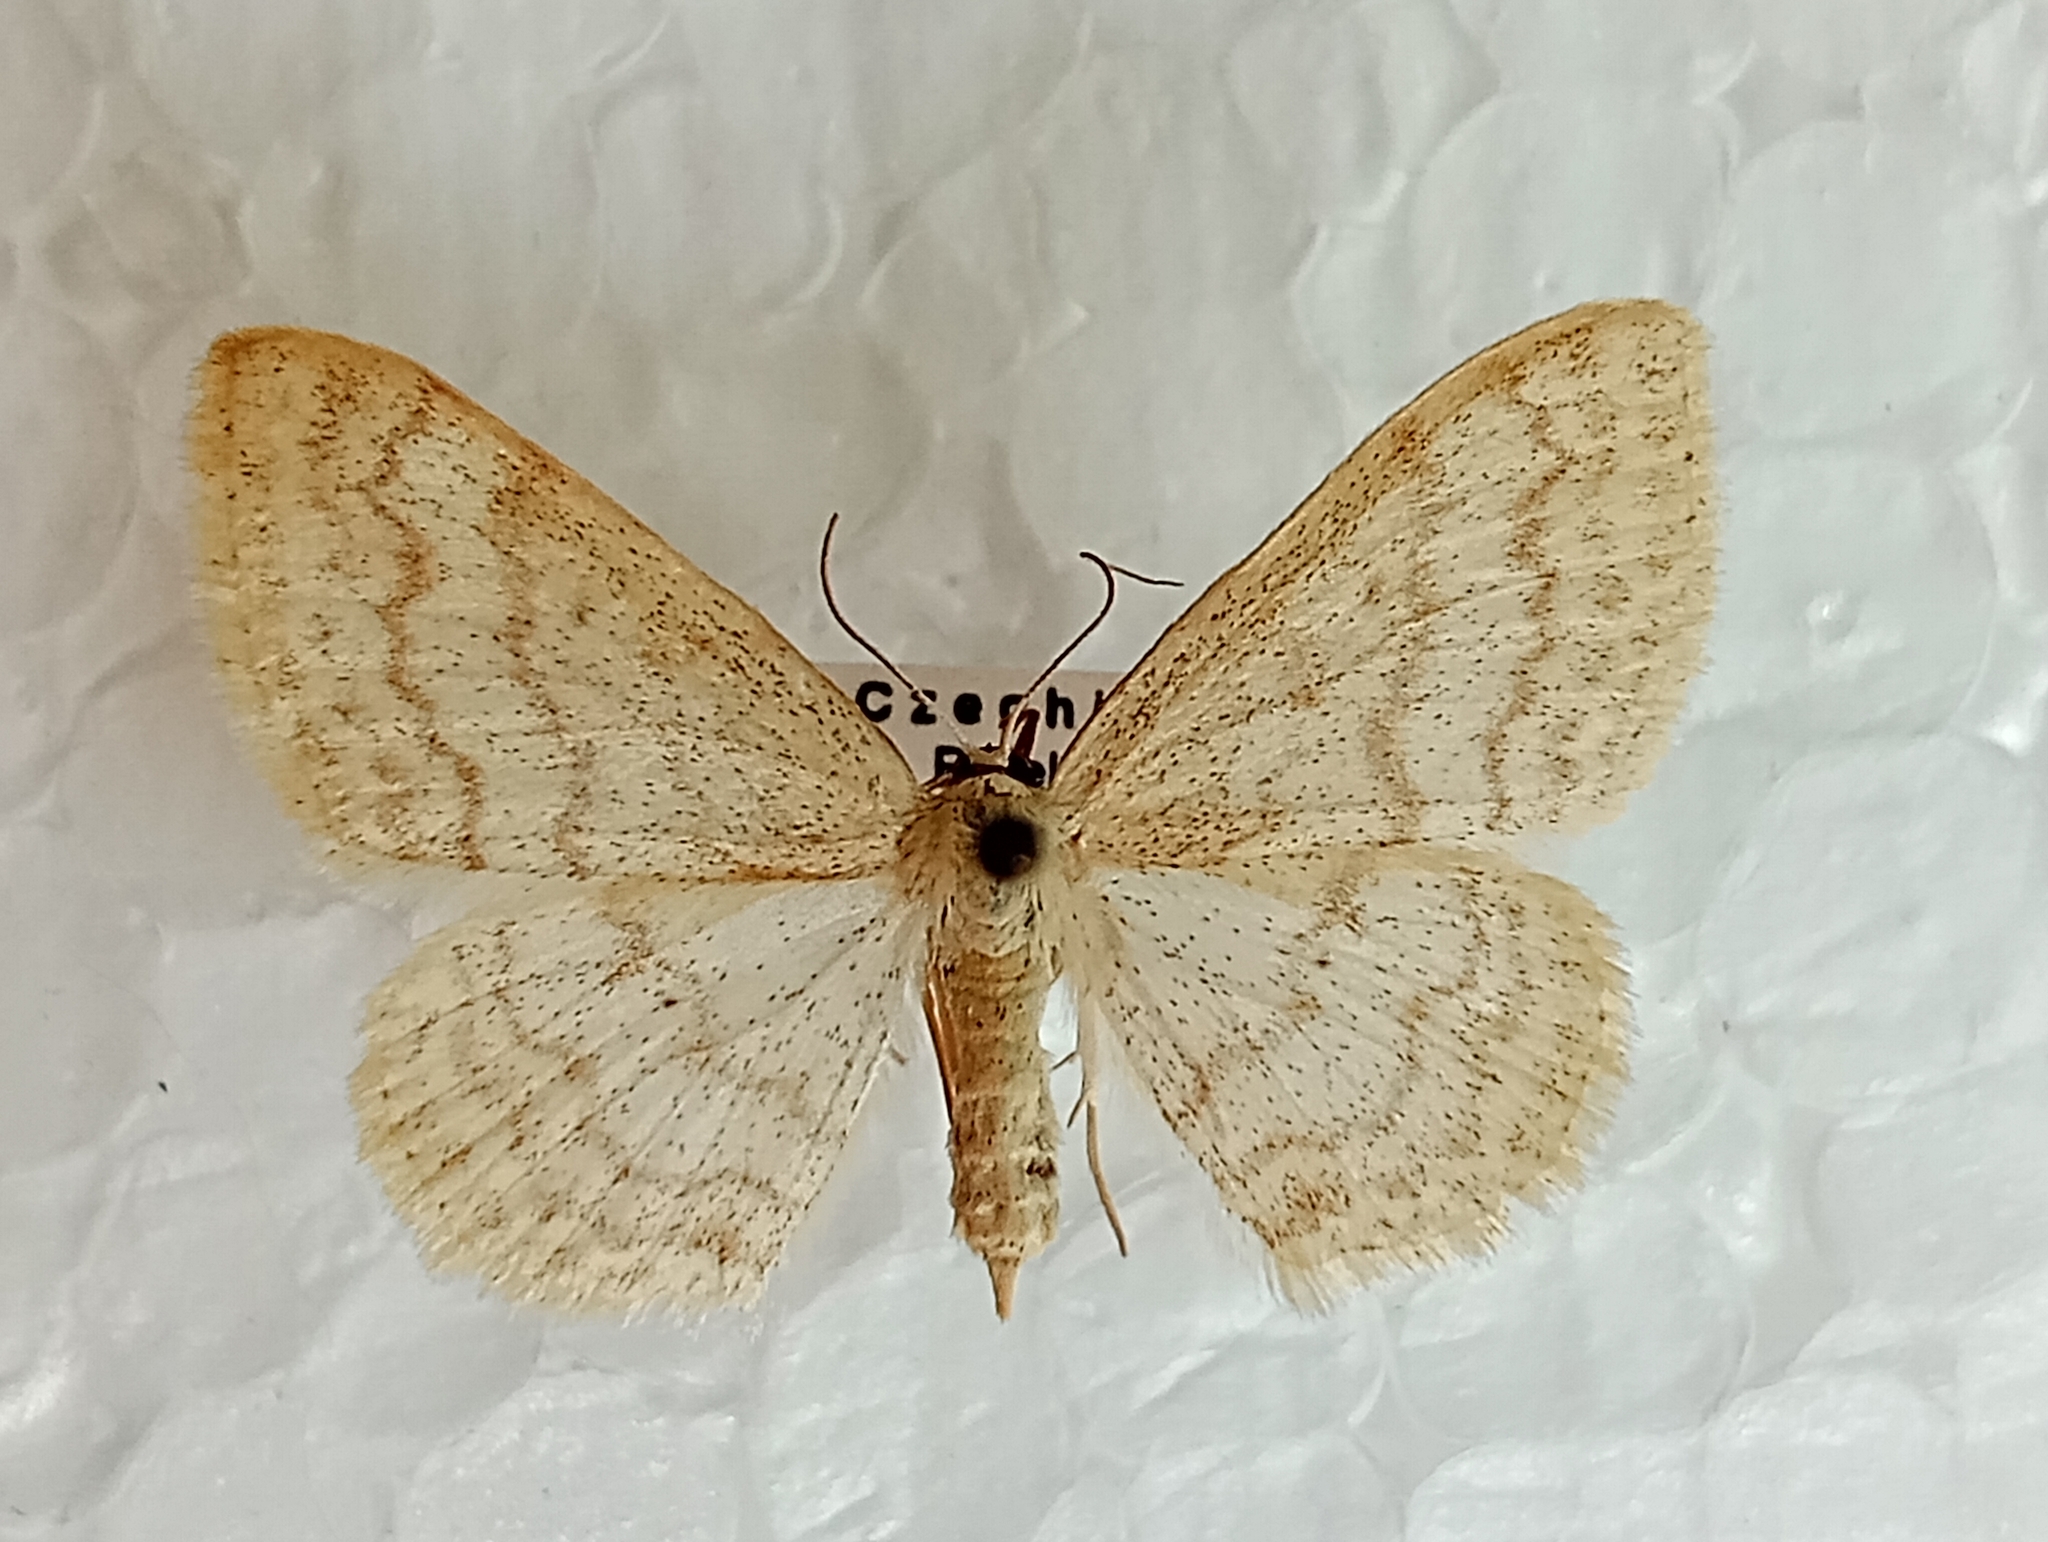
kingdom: Animalia
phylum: Arthropoda
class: Insecta
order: Lepidoptera
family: Geometridae
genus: Scopula
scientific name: Scopula floslactata
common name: Cream wave
